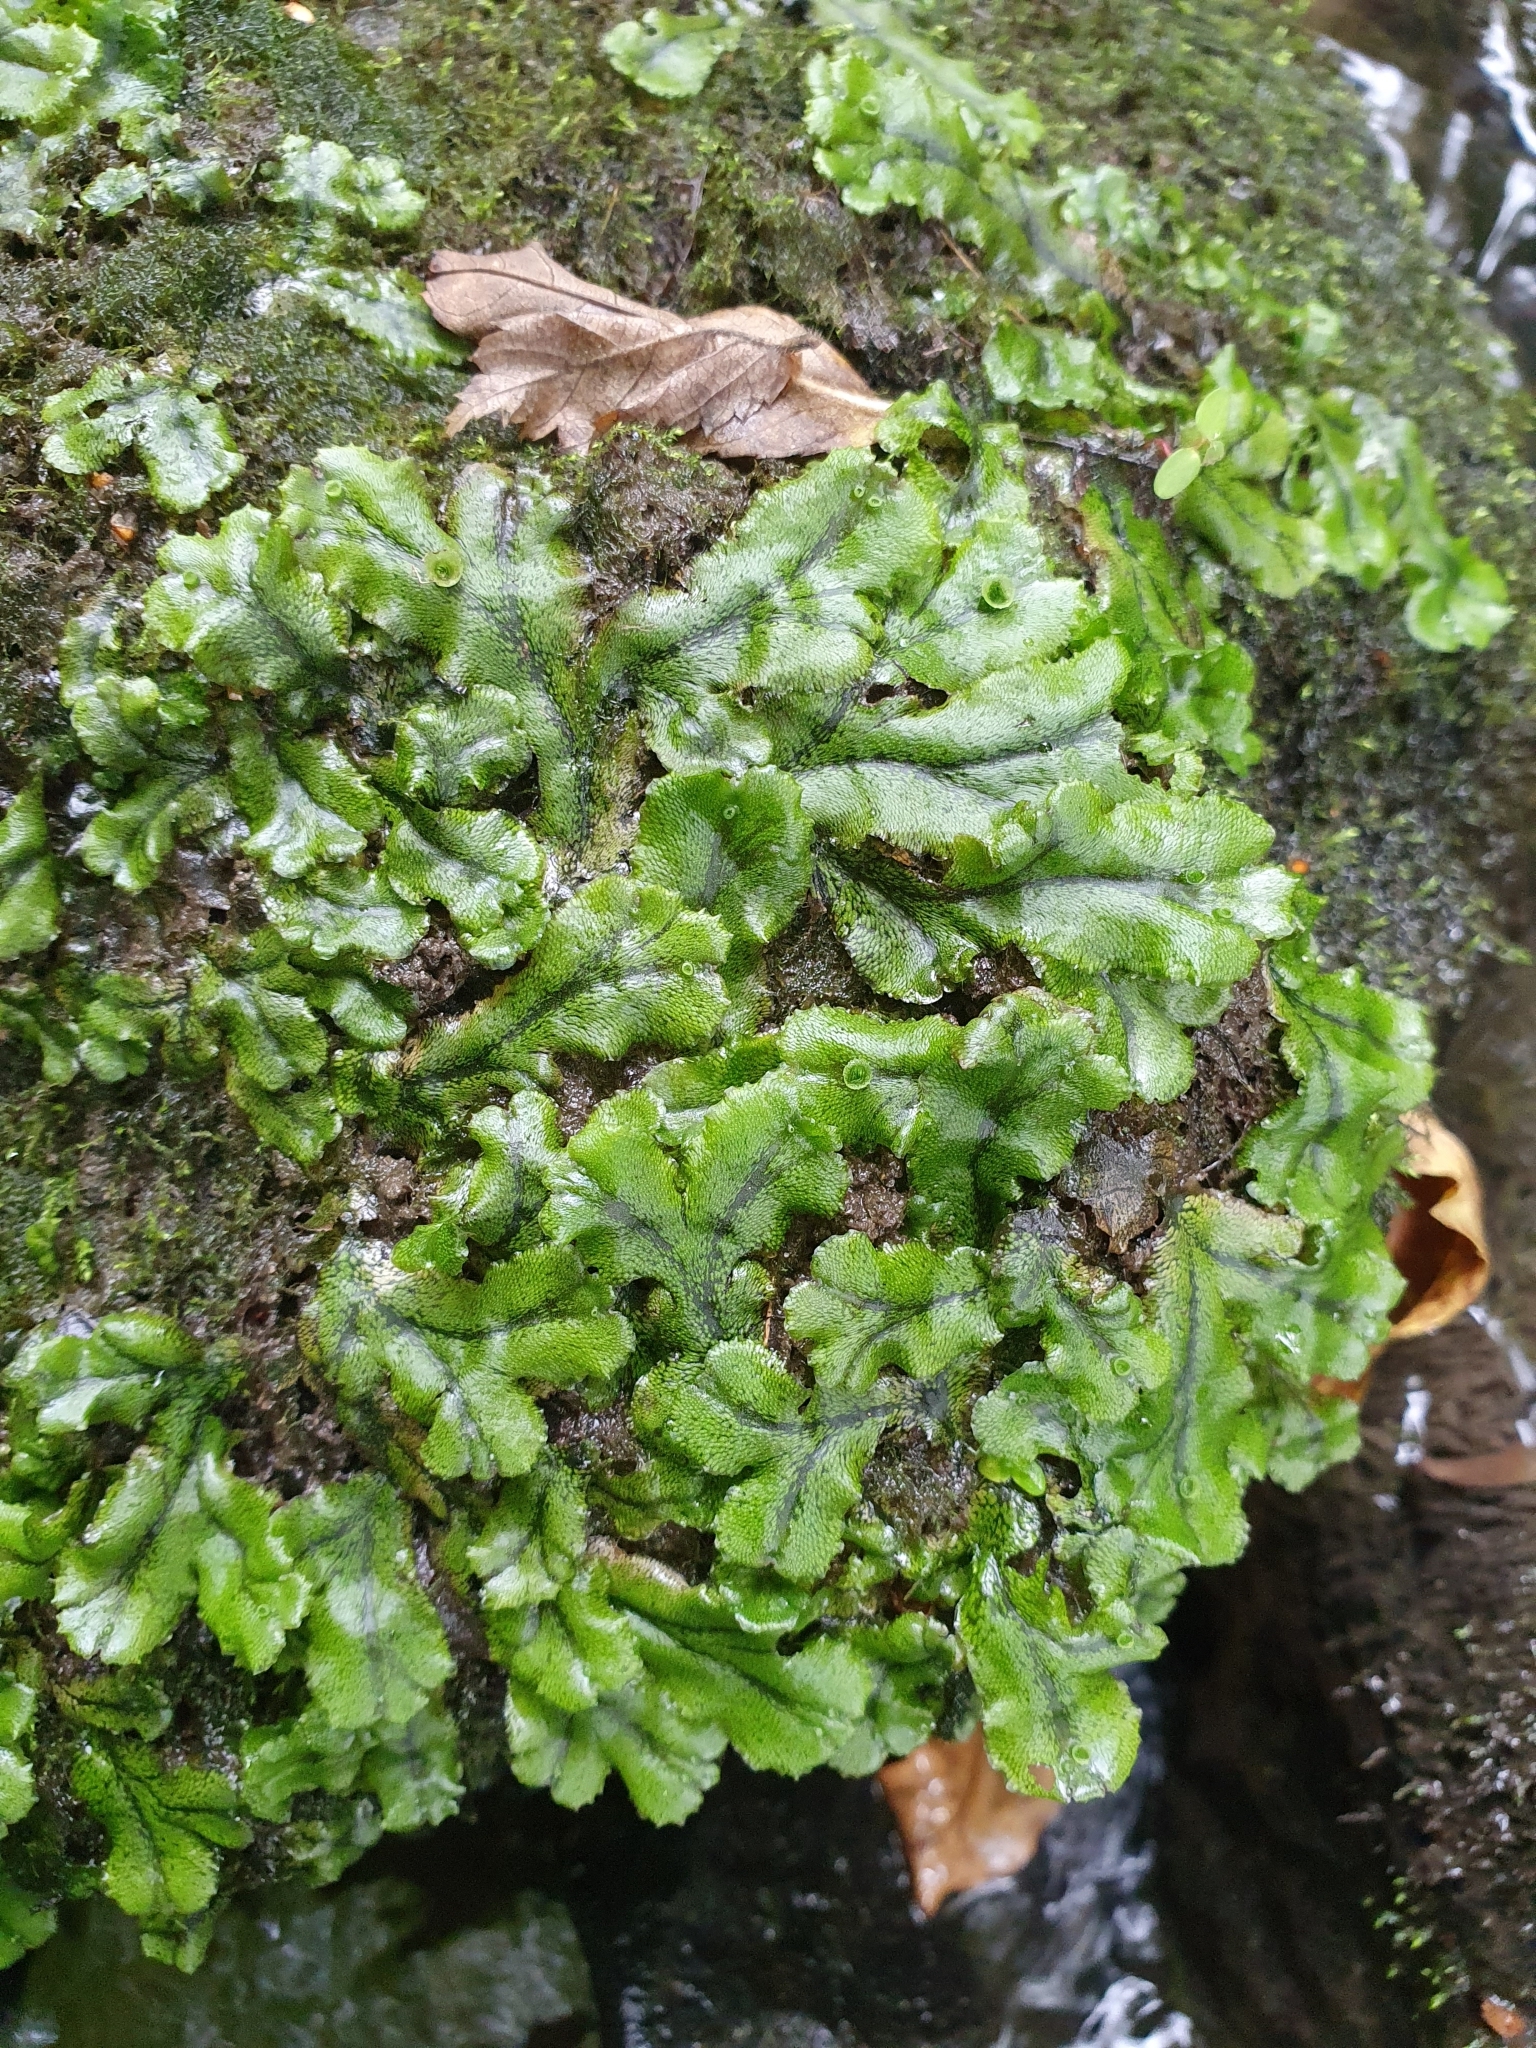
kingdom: Plantae
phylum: Marchantiophyta
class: Marchantiopsida
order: Marchantiales
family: Marchantiaceae
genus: Marchantia
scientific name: Marchantia polymorpha
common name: Common liverwort
